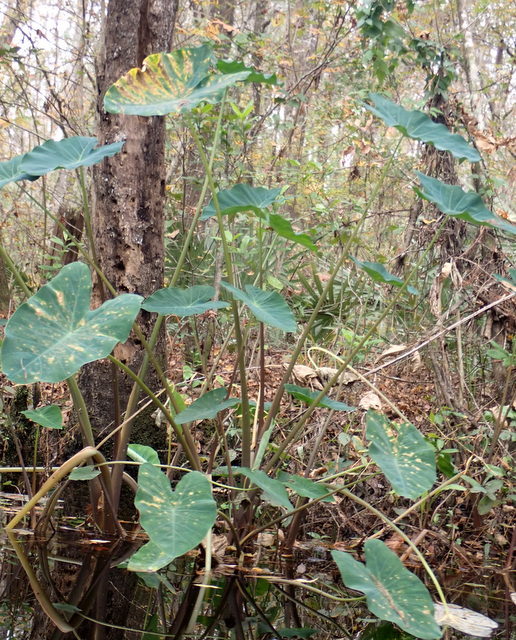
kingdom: Plantae
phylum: Tracheophyta
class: Liliopsida
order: Alismatales
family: Araceae
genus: Colocasia
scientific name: Colocasia esculenta
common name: Taro
